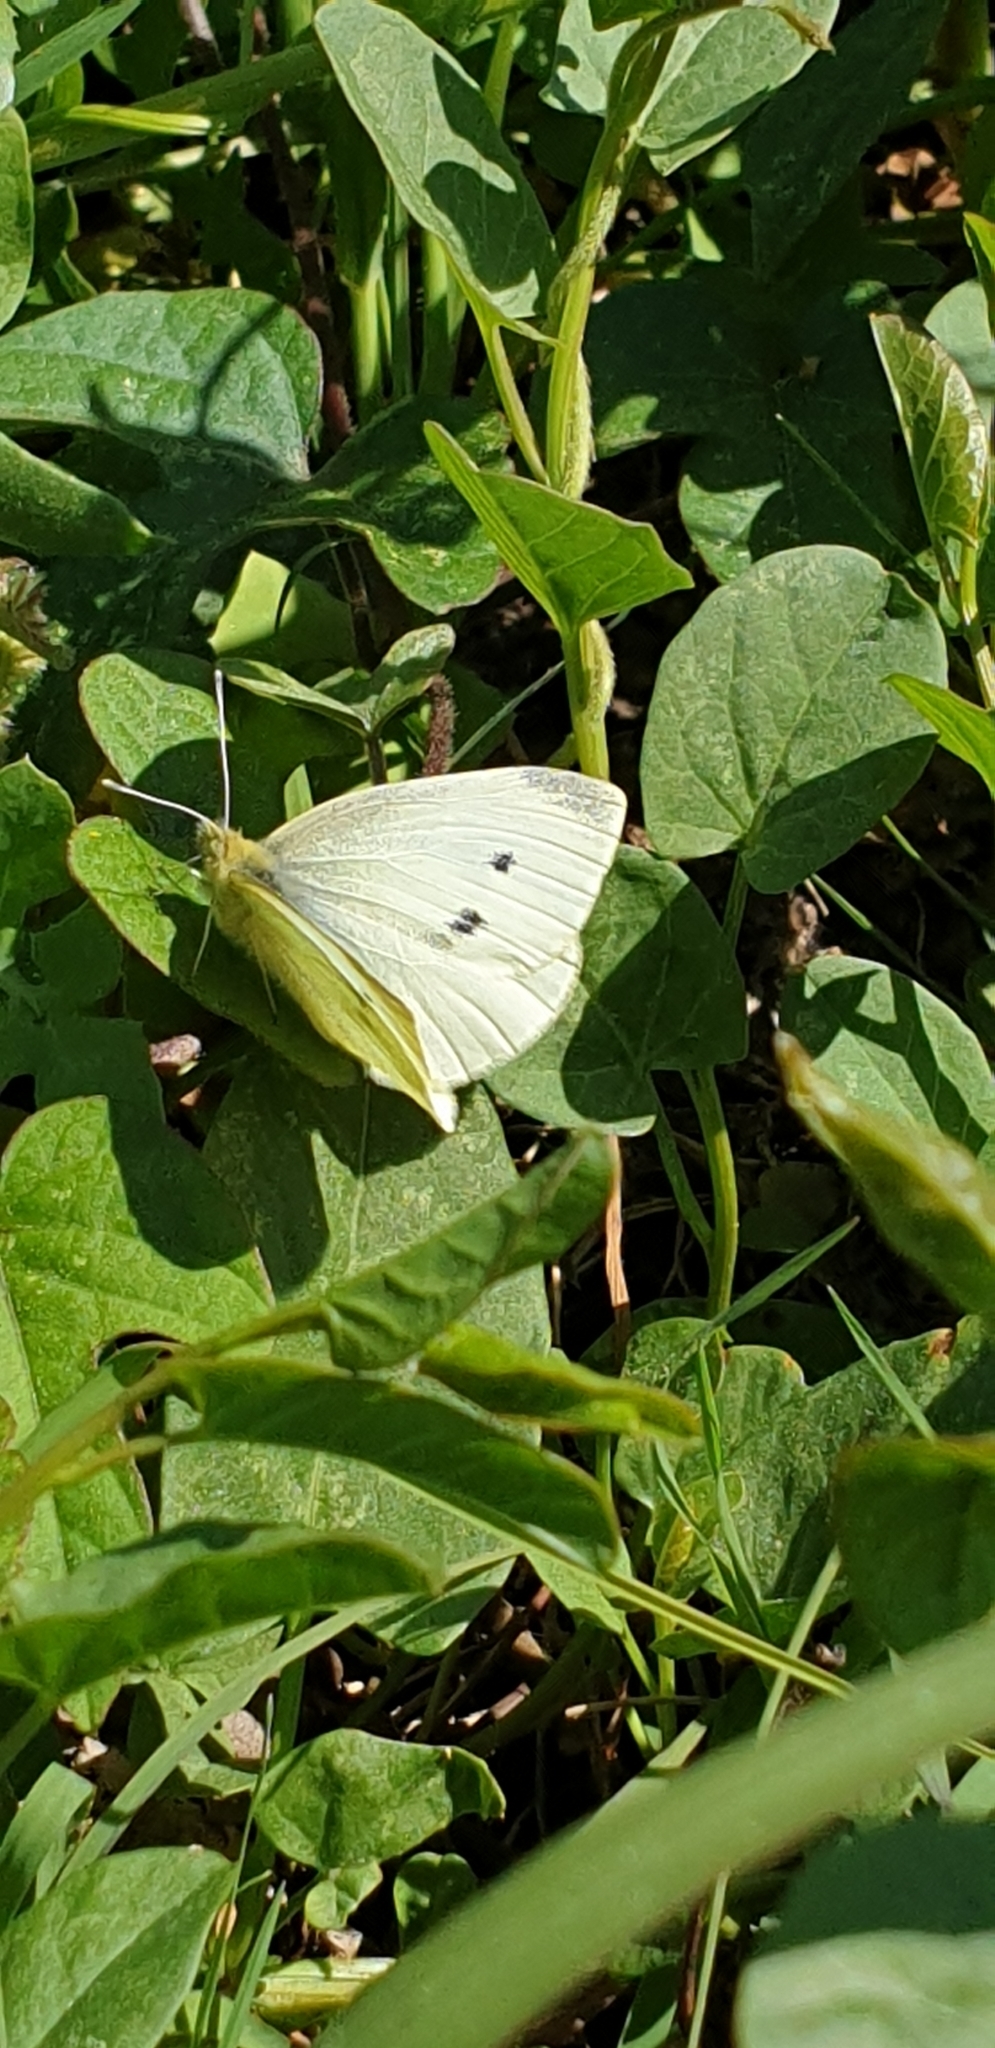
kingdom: Animalia
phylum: Arthropoda
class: Insecta
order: Lepidoptera
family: Pieridae
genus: Pieris
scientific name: Pieris rapae
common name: Small white
